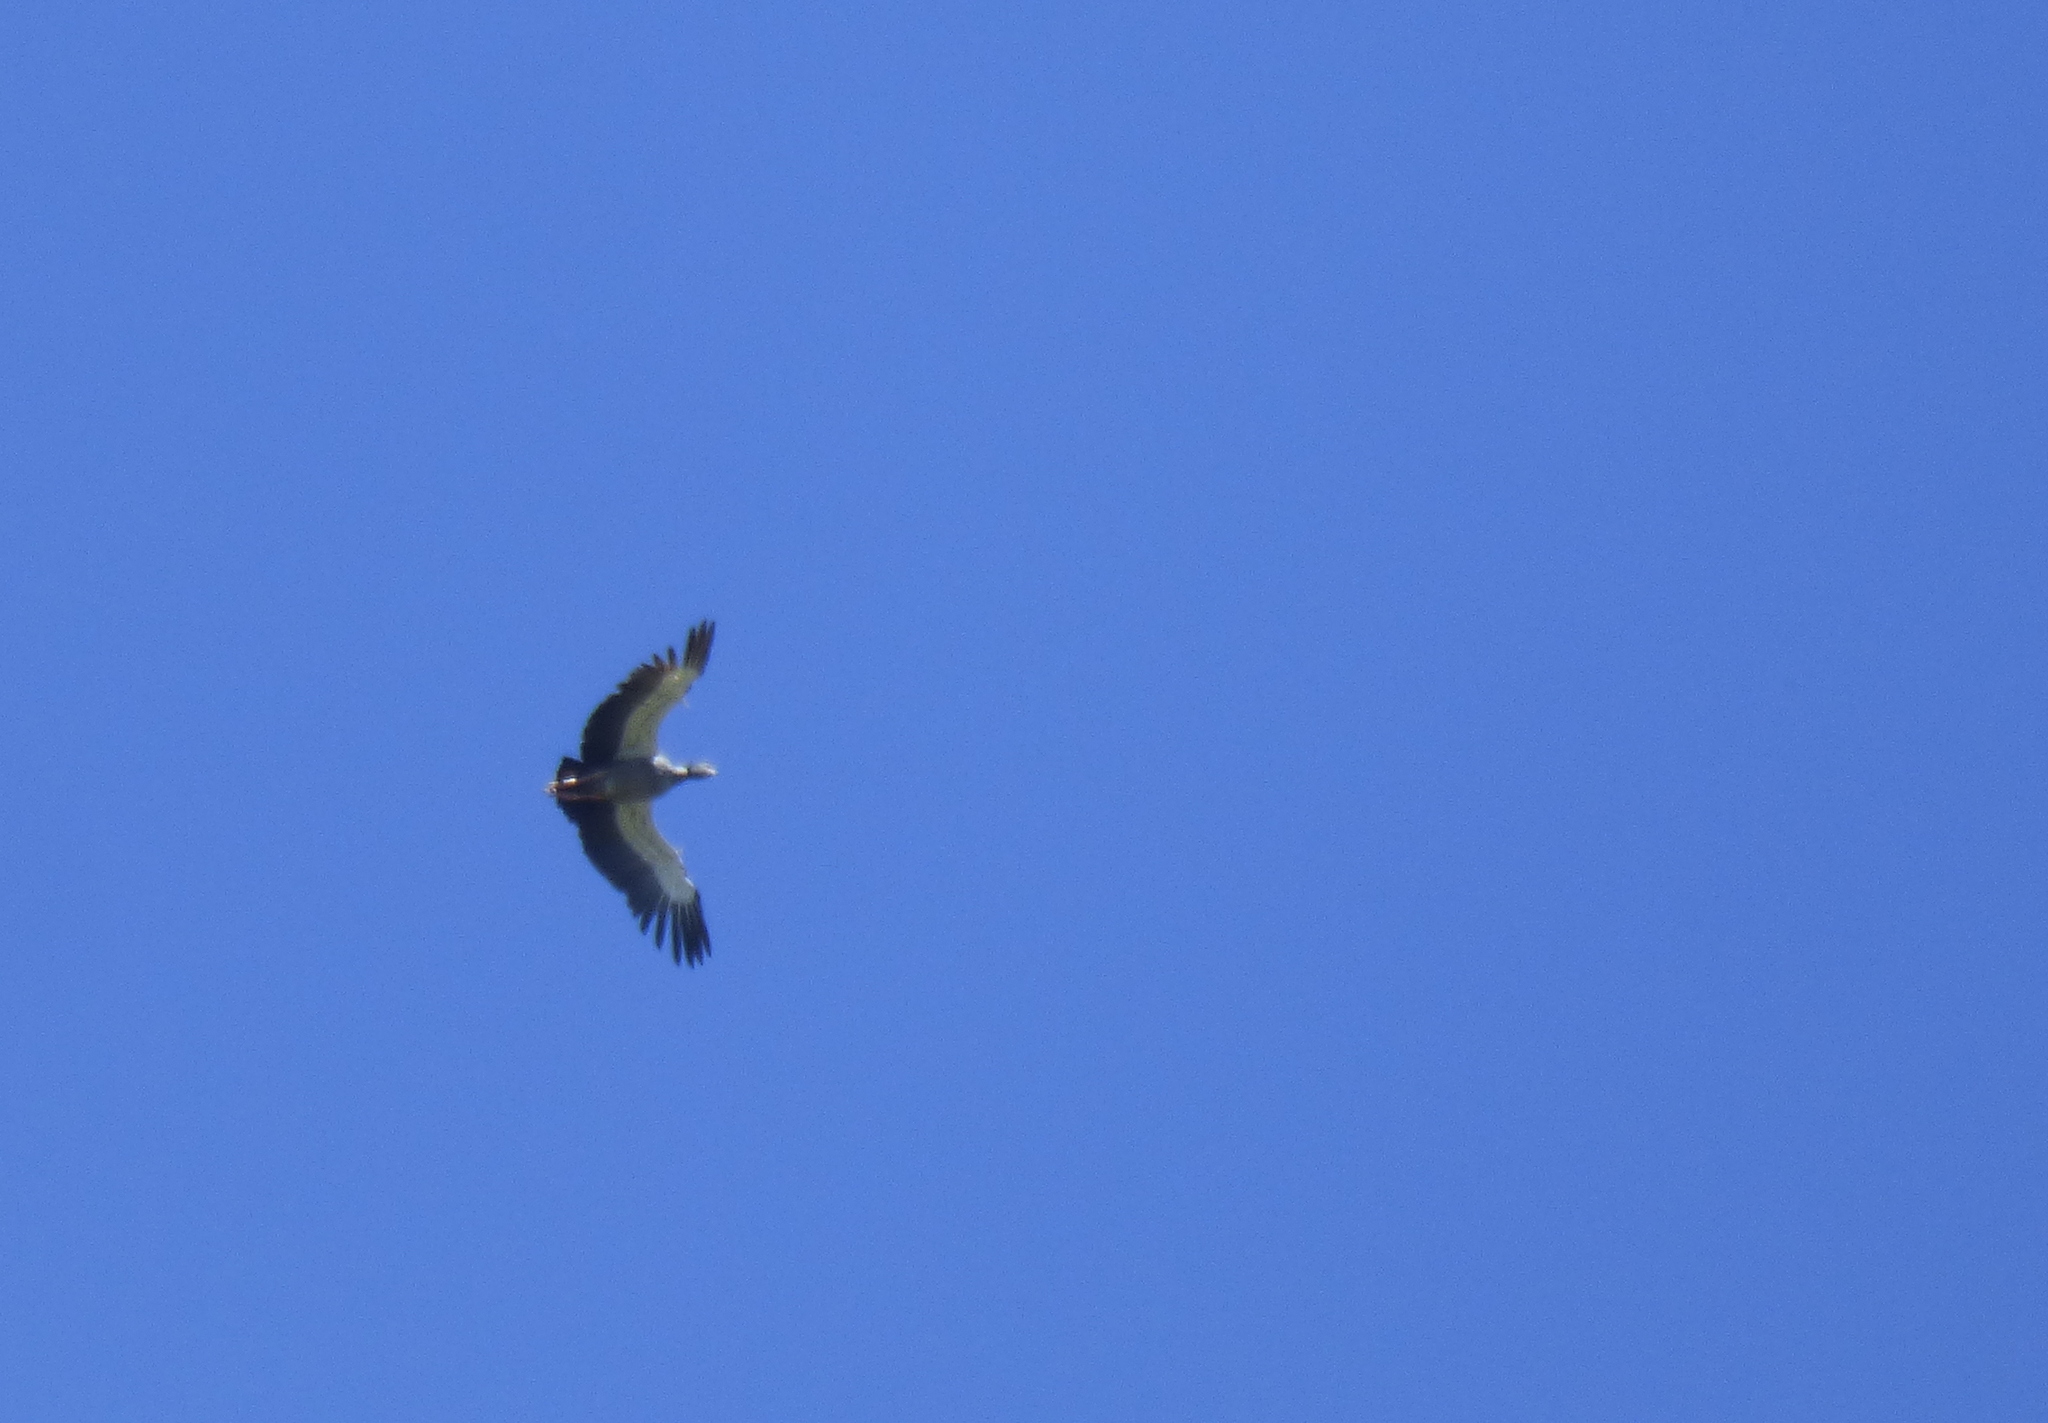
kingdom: Animalia
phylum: Chordata
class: Aves
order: Anseriformes
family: Anhimidae
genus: Chauna
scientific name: Chauna torquata
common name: Southern screamer
